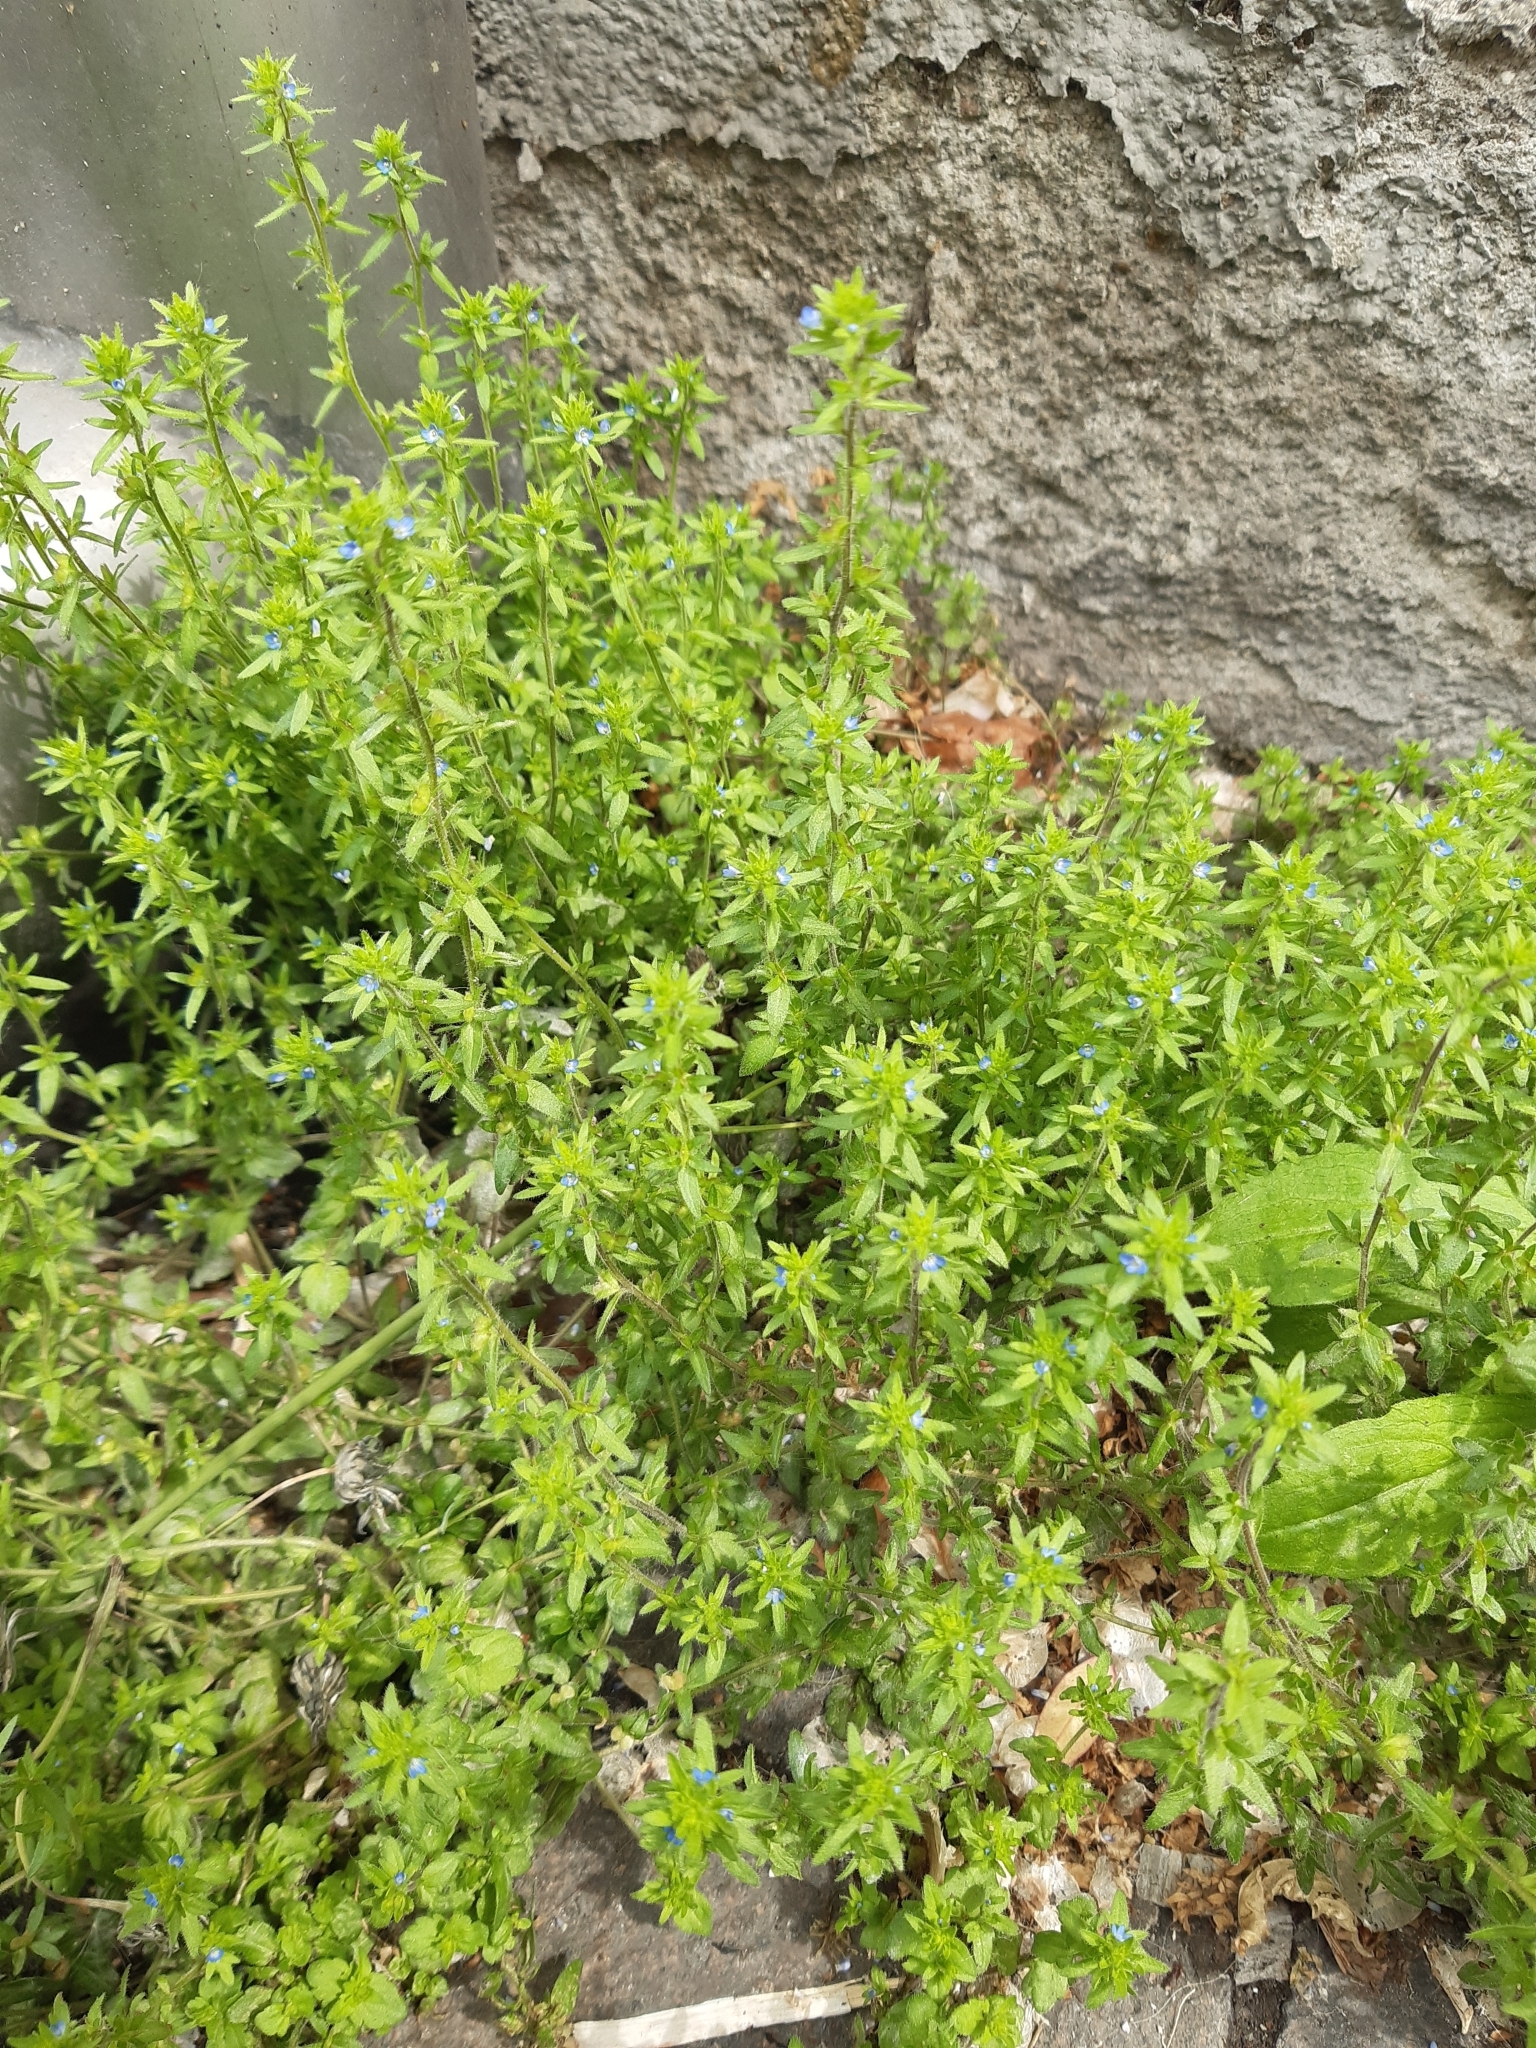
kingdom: Plantae
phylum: Tracheophyta
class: Magnoliopsida
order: Lamiales
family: Plantaginaceae
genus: Veronica
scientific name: Veronica arvensis
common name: Corn speedwell
